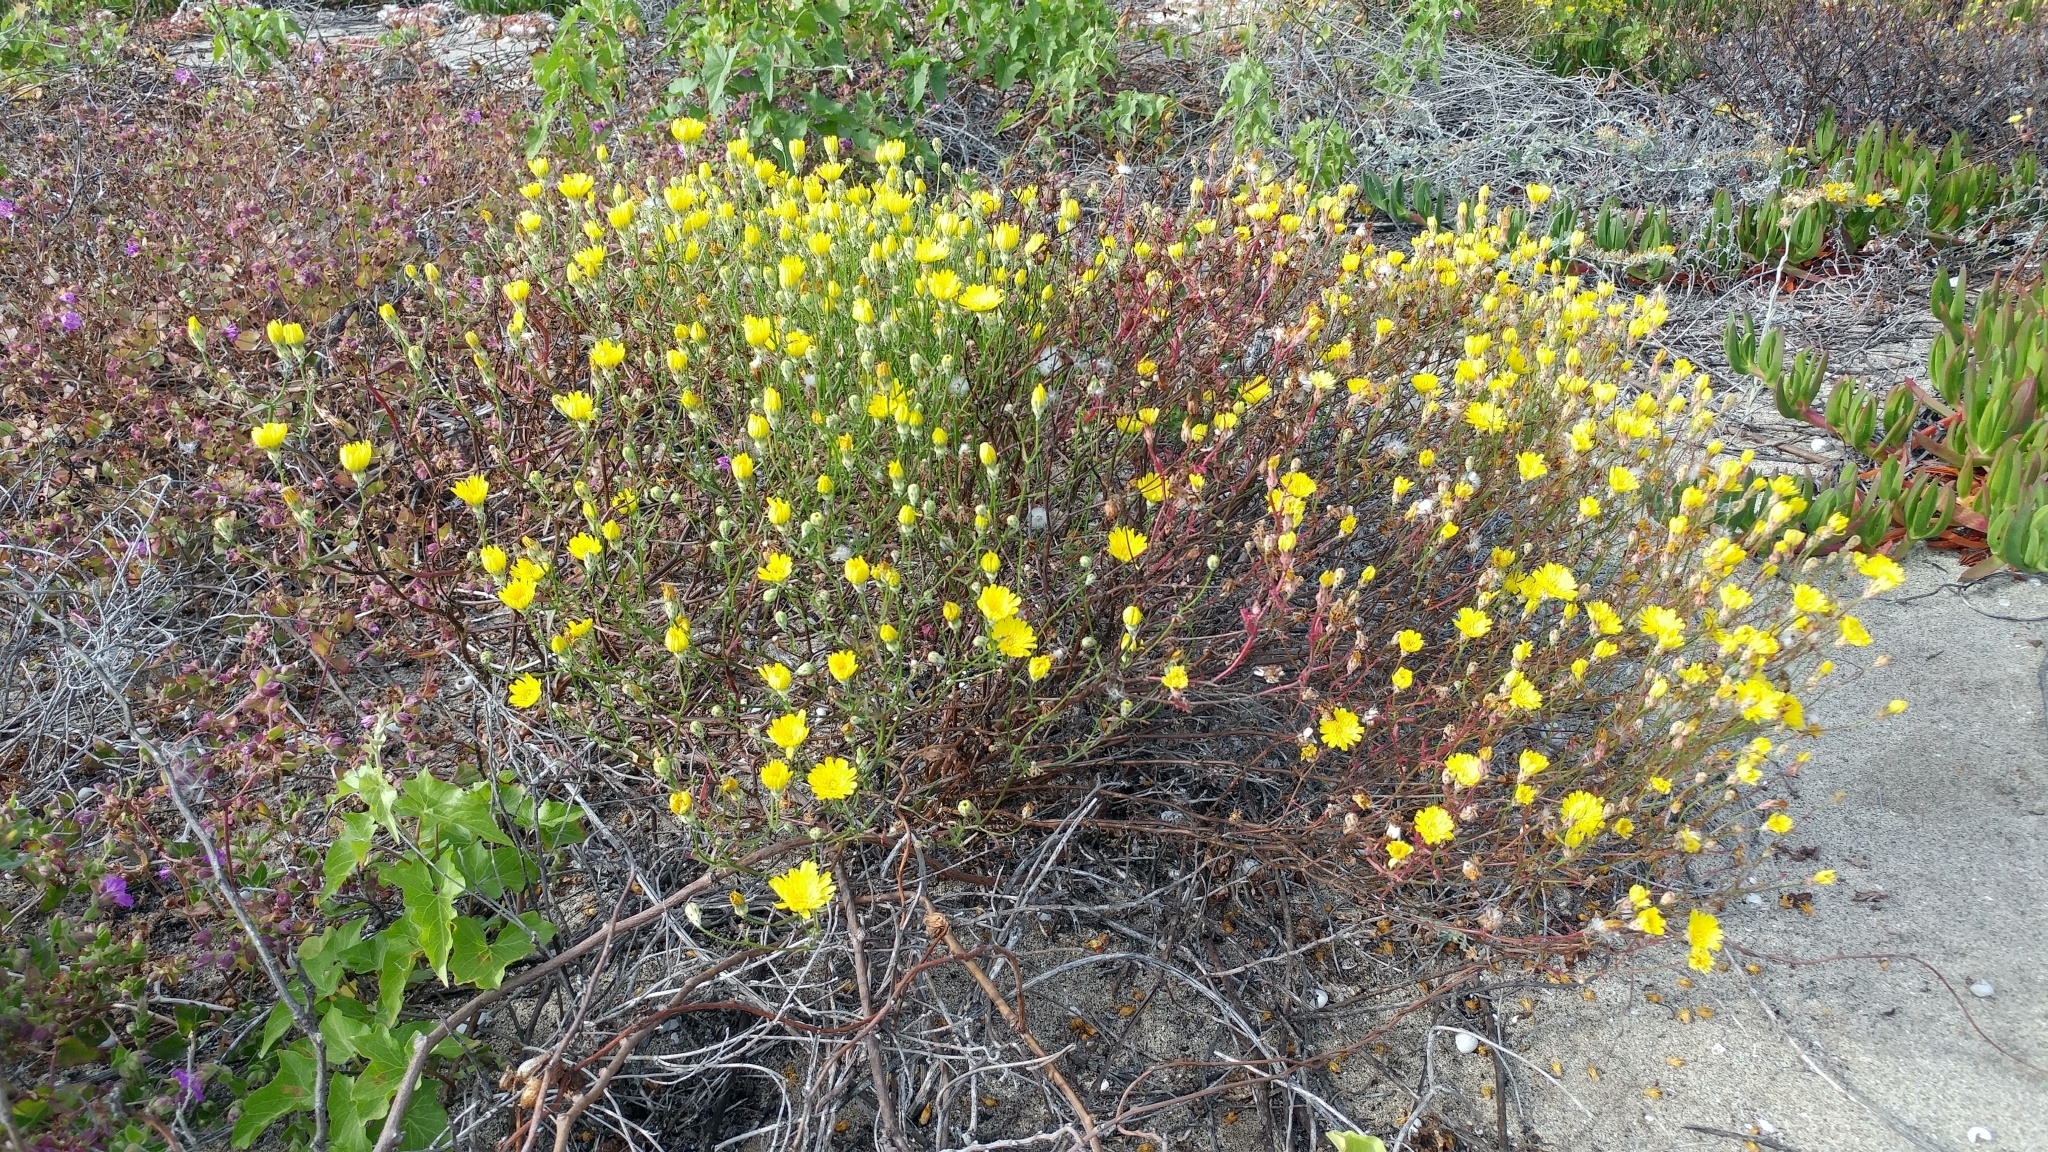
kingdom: Plantae
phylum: Tracheophyta
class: Magnoliopsida
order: Asterales
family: Asteraceae
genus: Malacothrix
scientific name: Malacothrix foliosa
